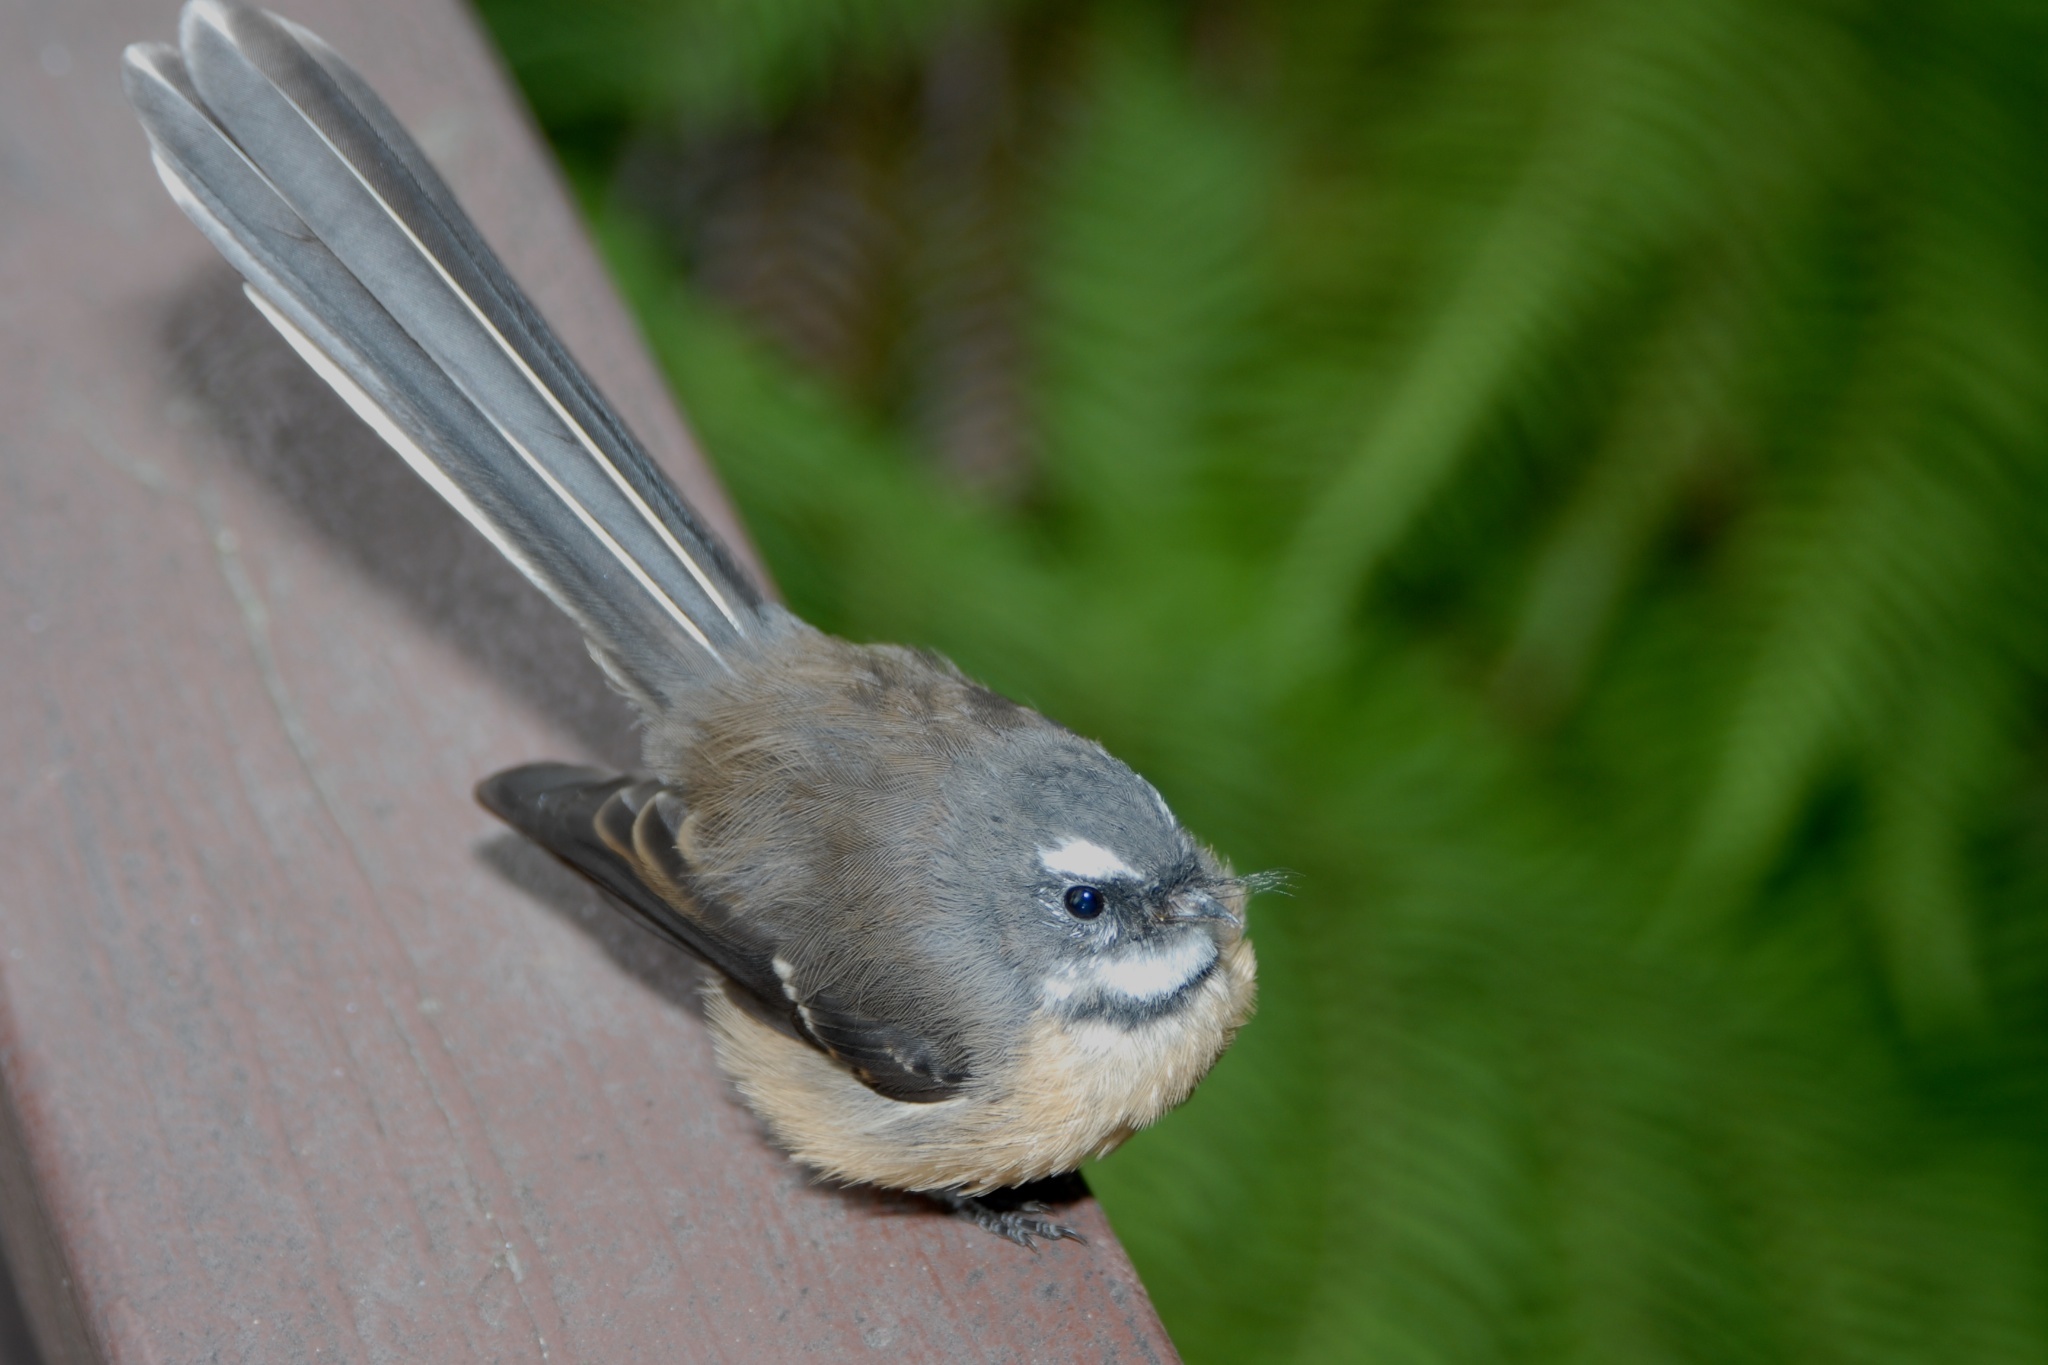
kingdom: Animalia
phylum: Chordata
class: Aves
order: Passeriformes
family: Rhipiduridae
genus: Rhipidura
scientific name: Rhipidura fuliginosa
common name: New zealand fantail
